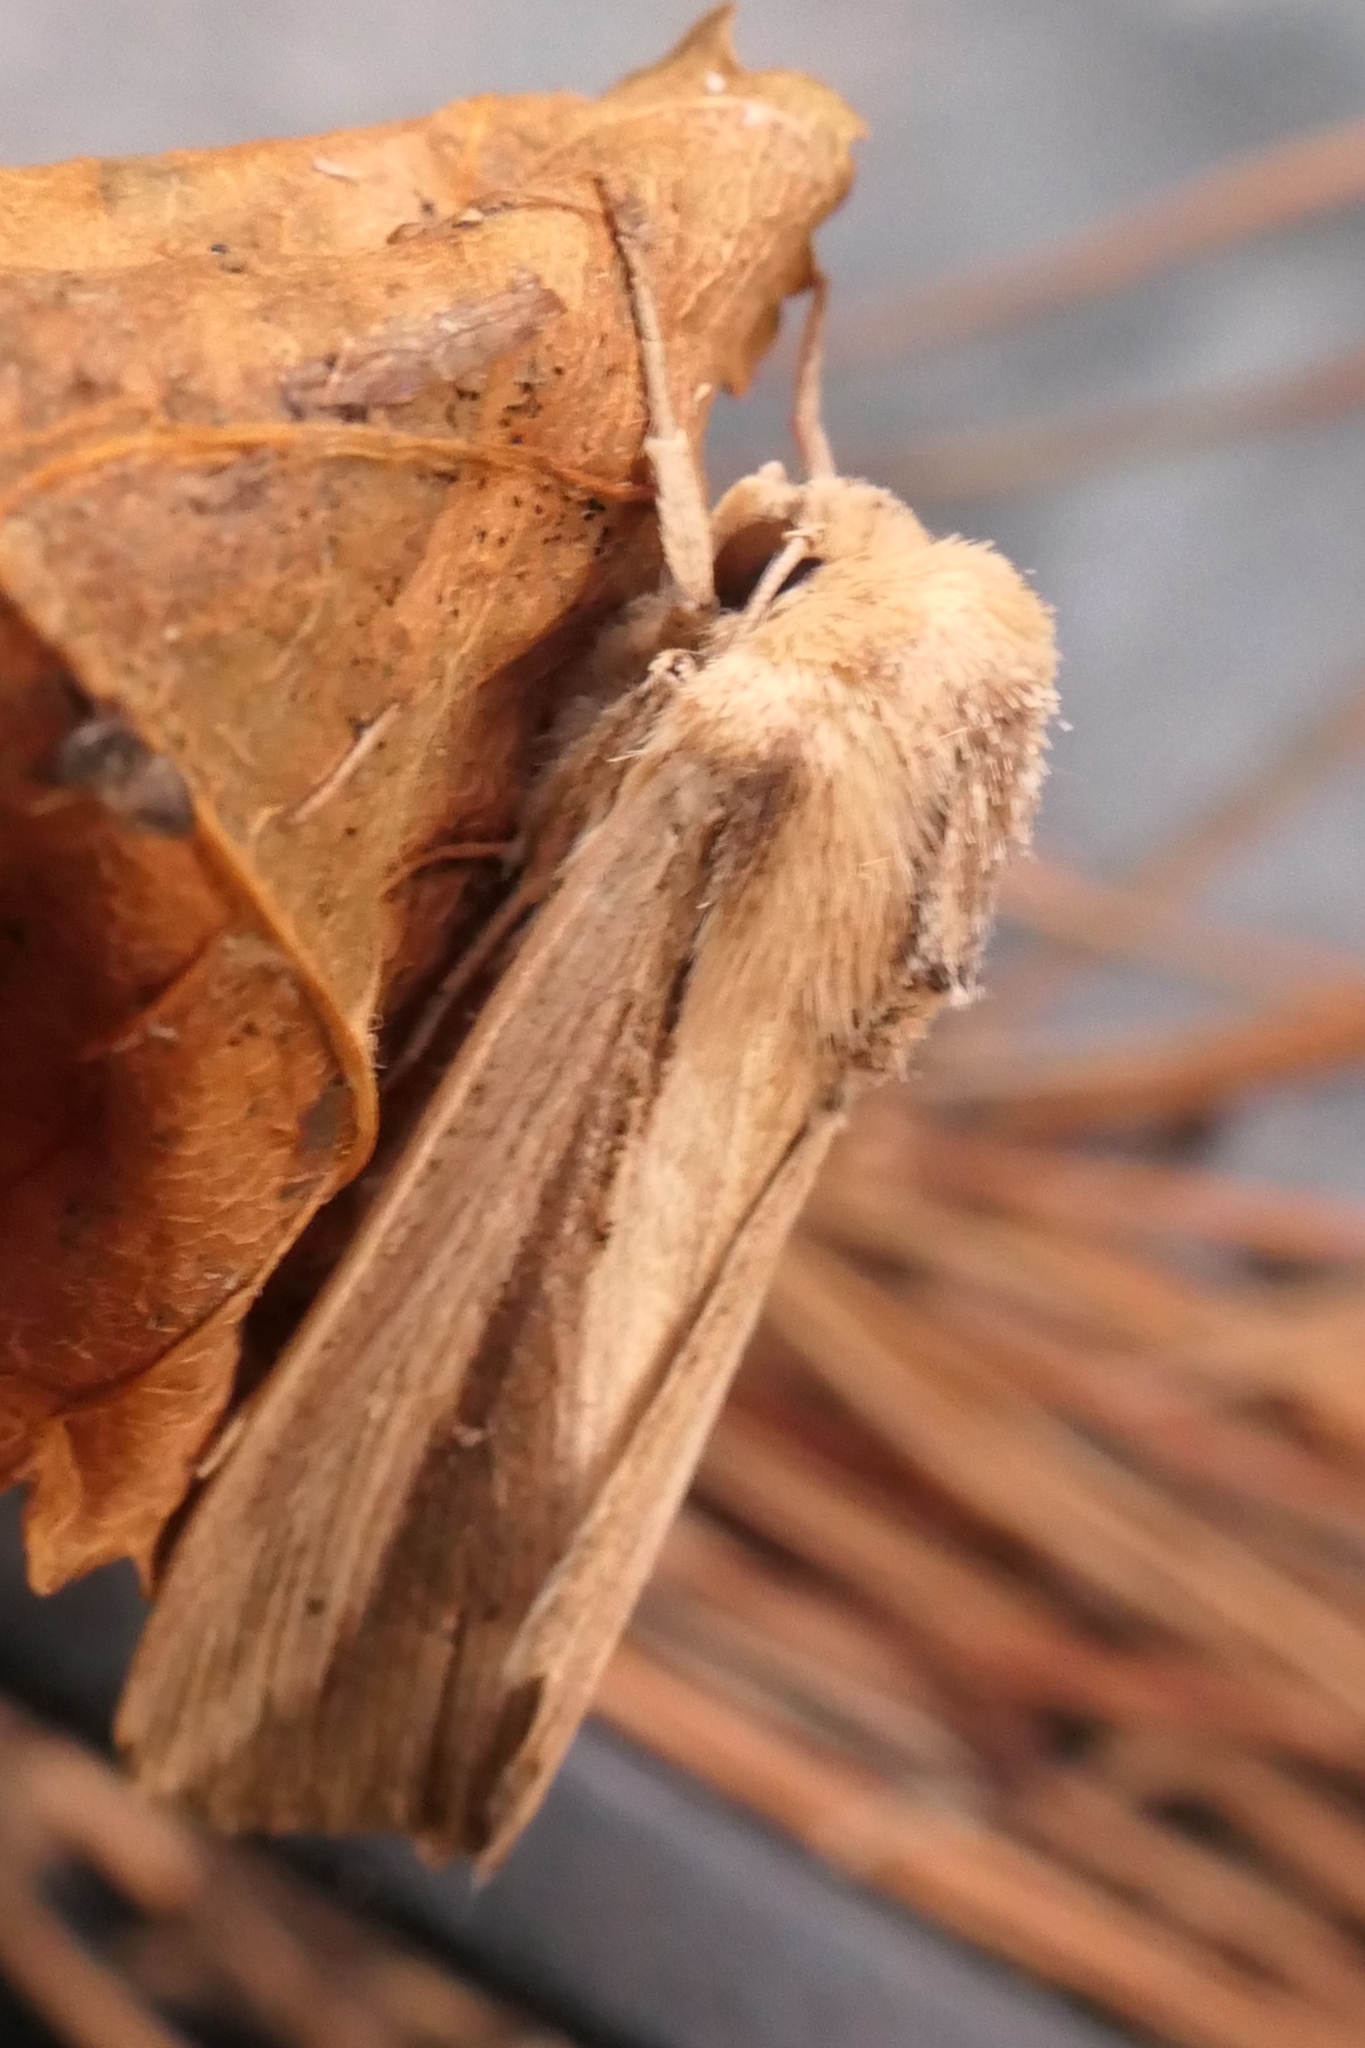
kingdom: Animalia
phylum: Arthropoda
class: Insecta
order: Lepidoptera
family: Noctuidae
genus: Leucania
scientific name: Leucania stenographa
